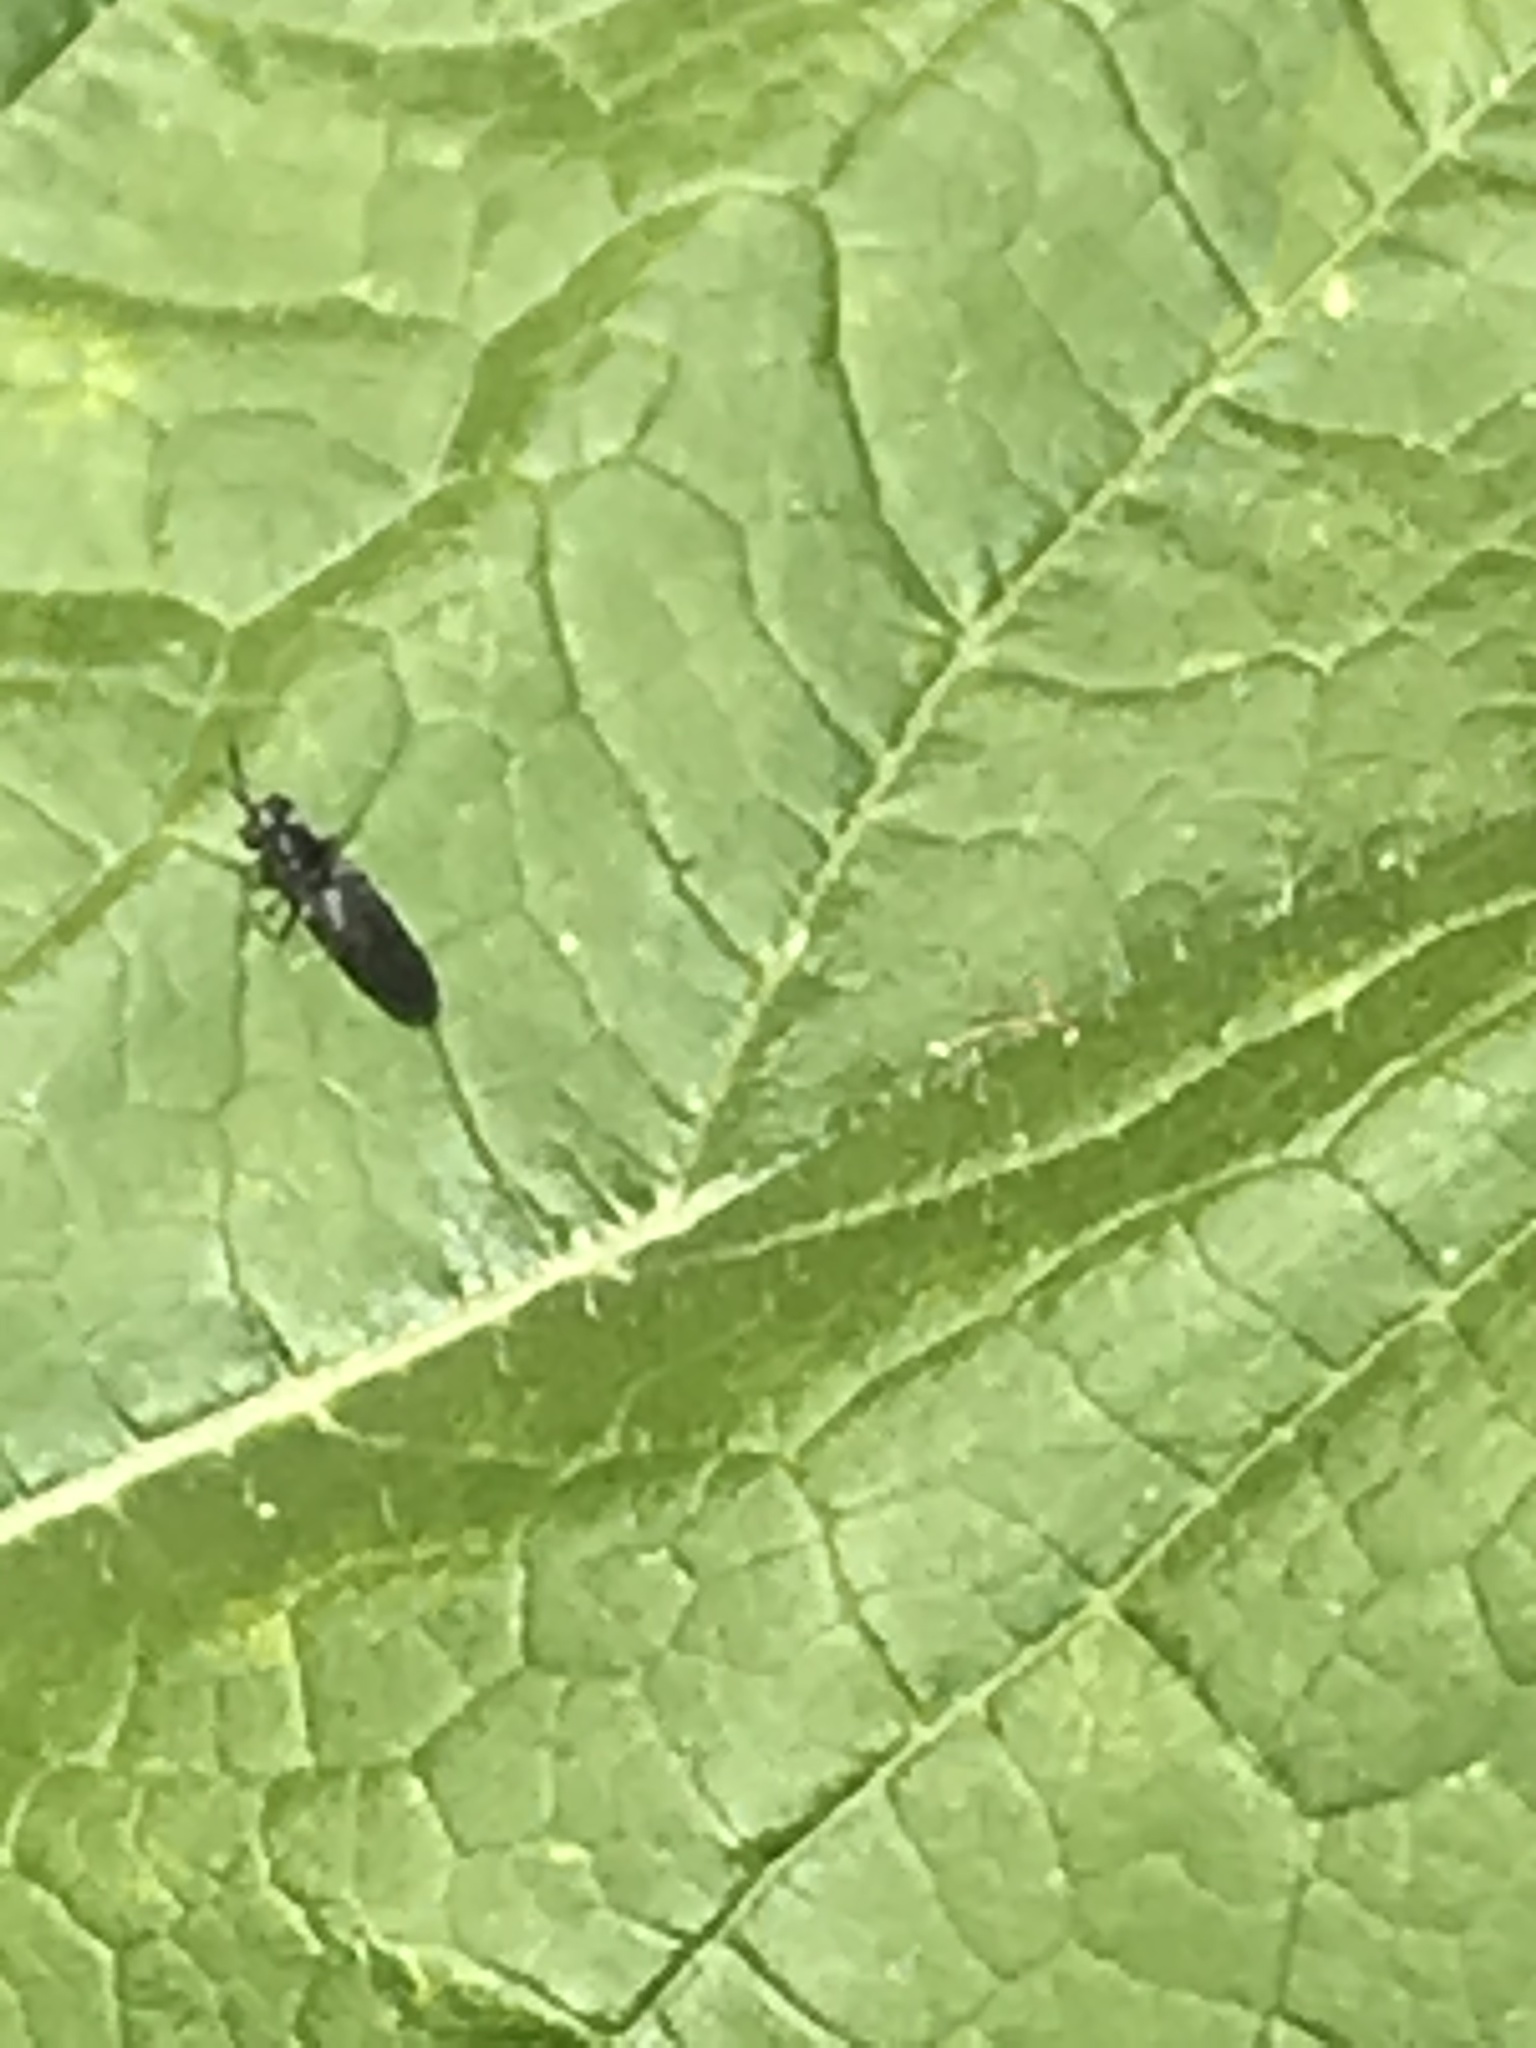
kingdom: Animalia
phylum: Arthropoda
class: Insecta
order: Diptera
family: Stratiomyidae
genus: Hermetia
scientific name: Hermetia illucens
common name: Black soldier fly
